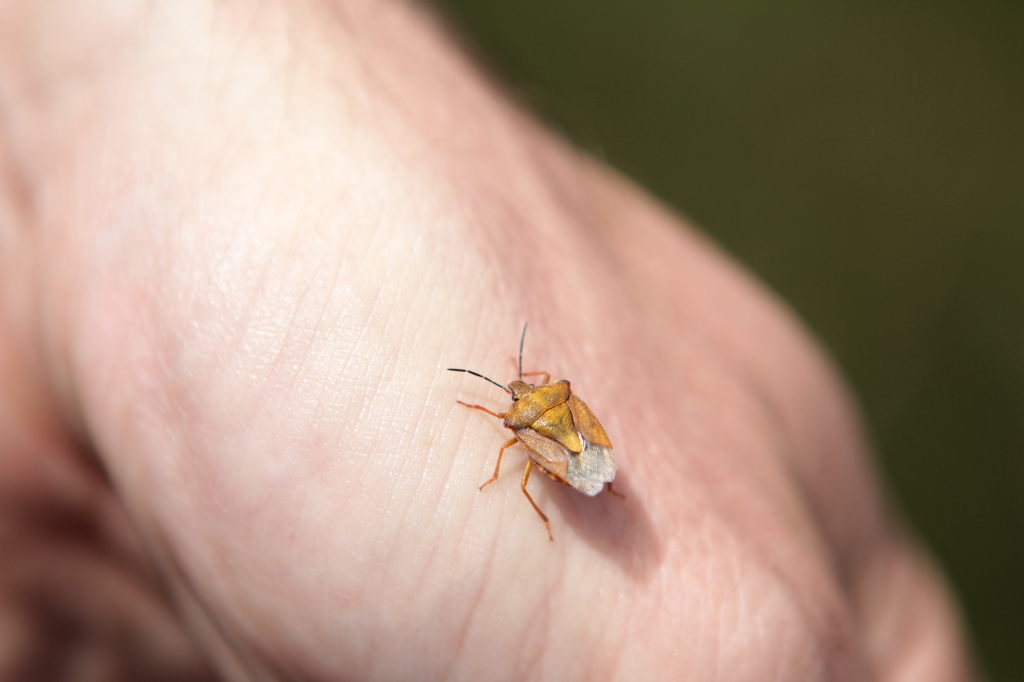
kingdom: Animalia
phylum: Arthropoda
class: Insecta
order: Hemiptera
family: Pentatomidae
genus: Carpocoris
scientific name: Carpocoris purpureipennis
